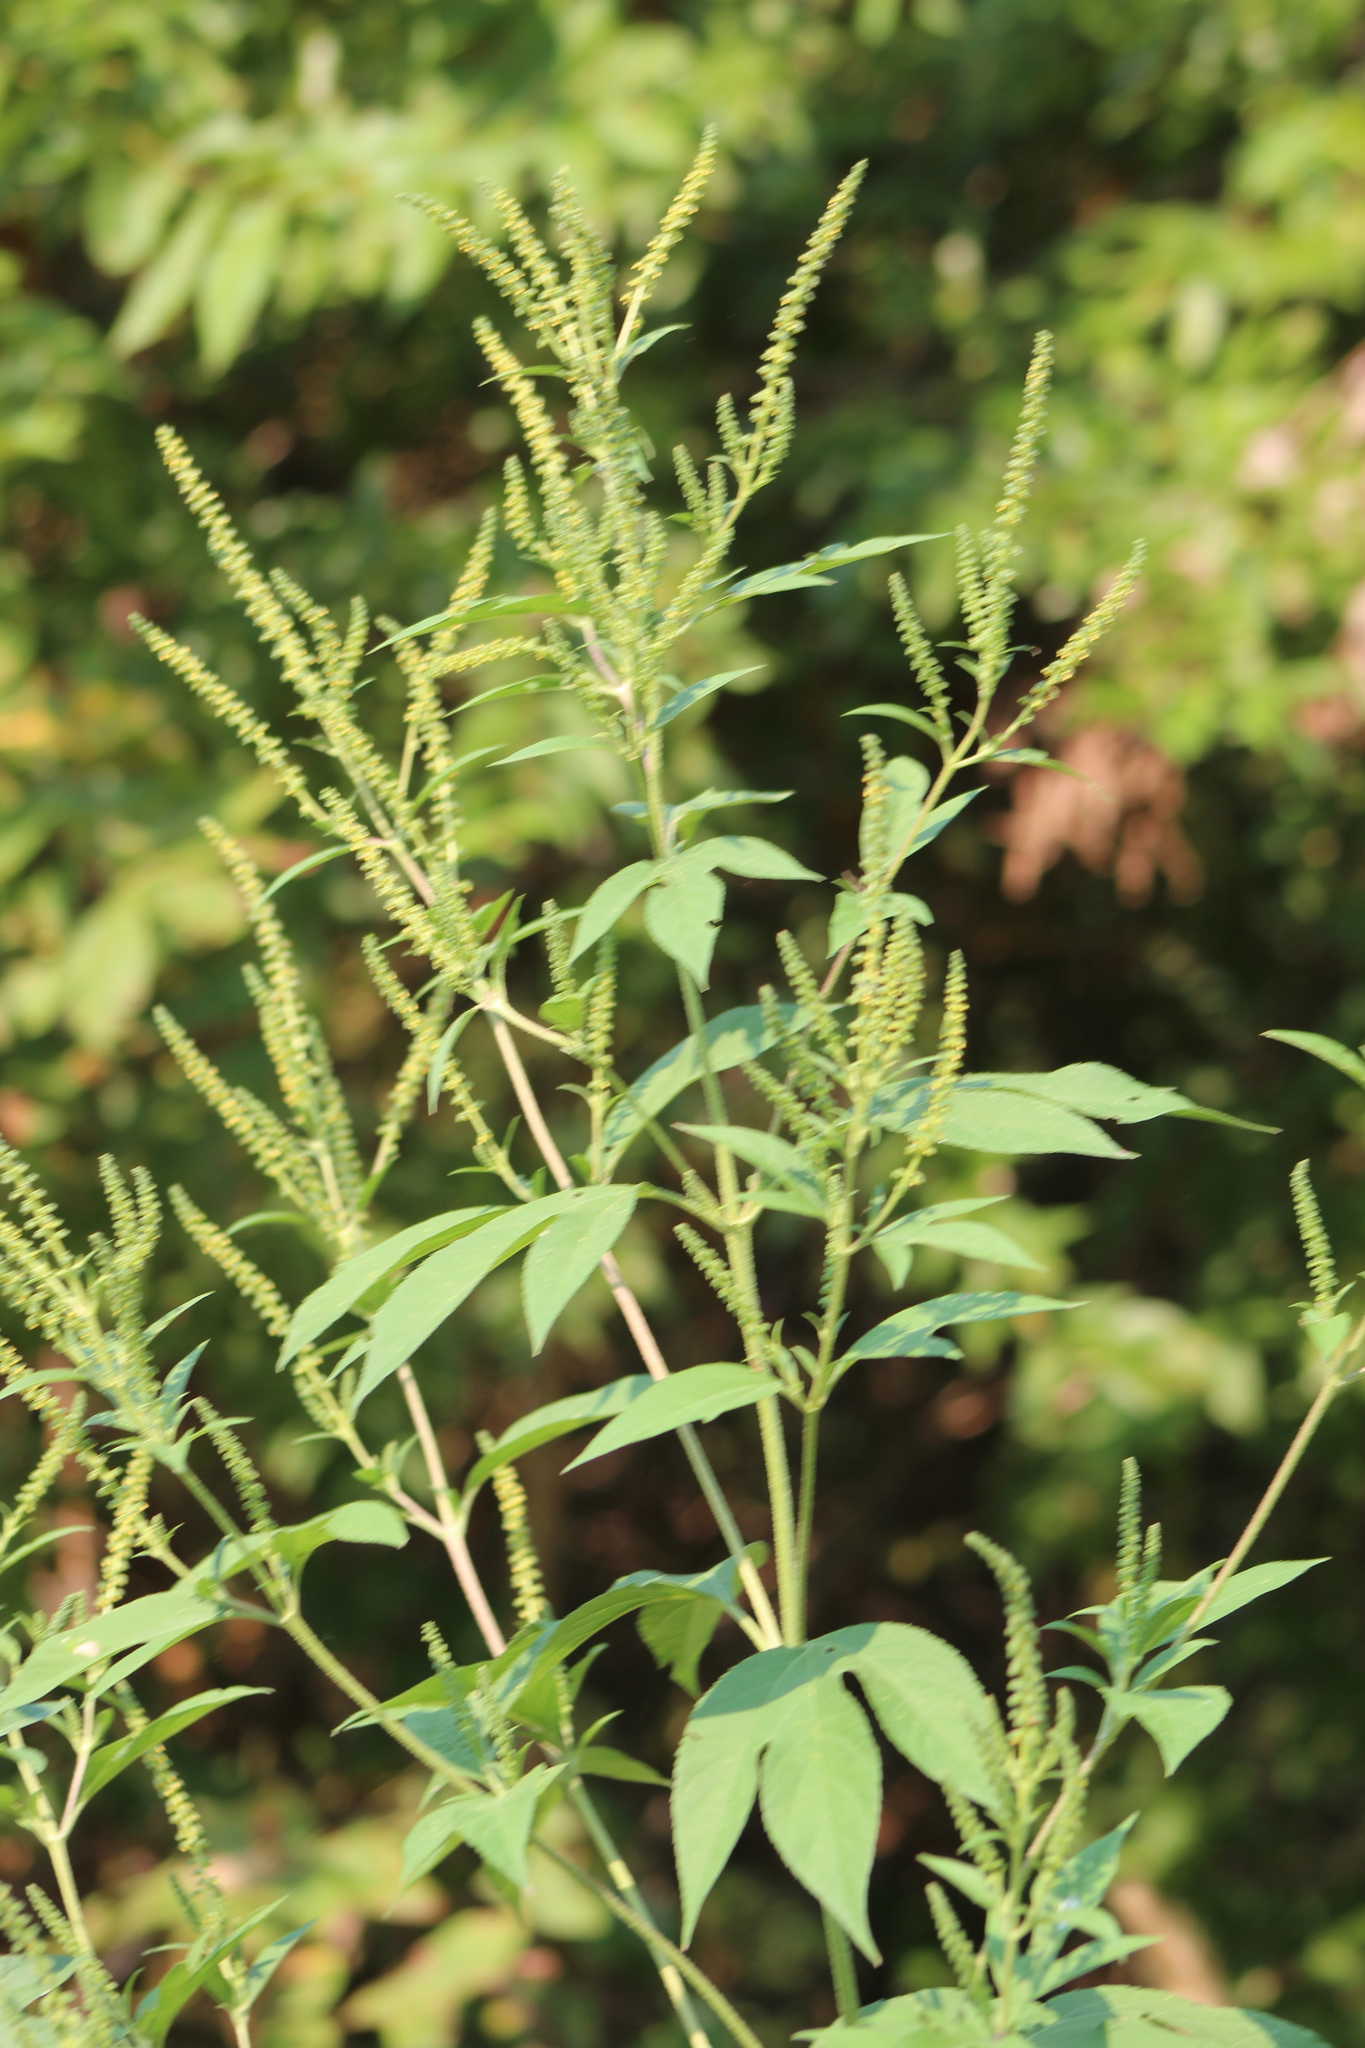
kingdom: Plantae
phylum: Tracheophyta
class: Magnoliopsida
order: Asterales
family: Asteraceae
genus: Ambrosia
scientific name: Ambrosia trifida
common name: Giant ragweed
